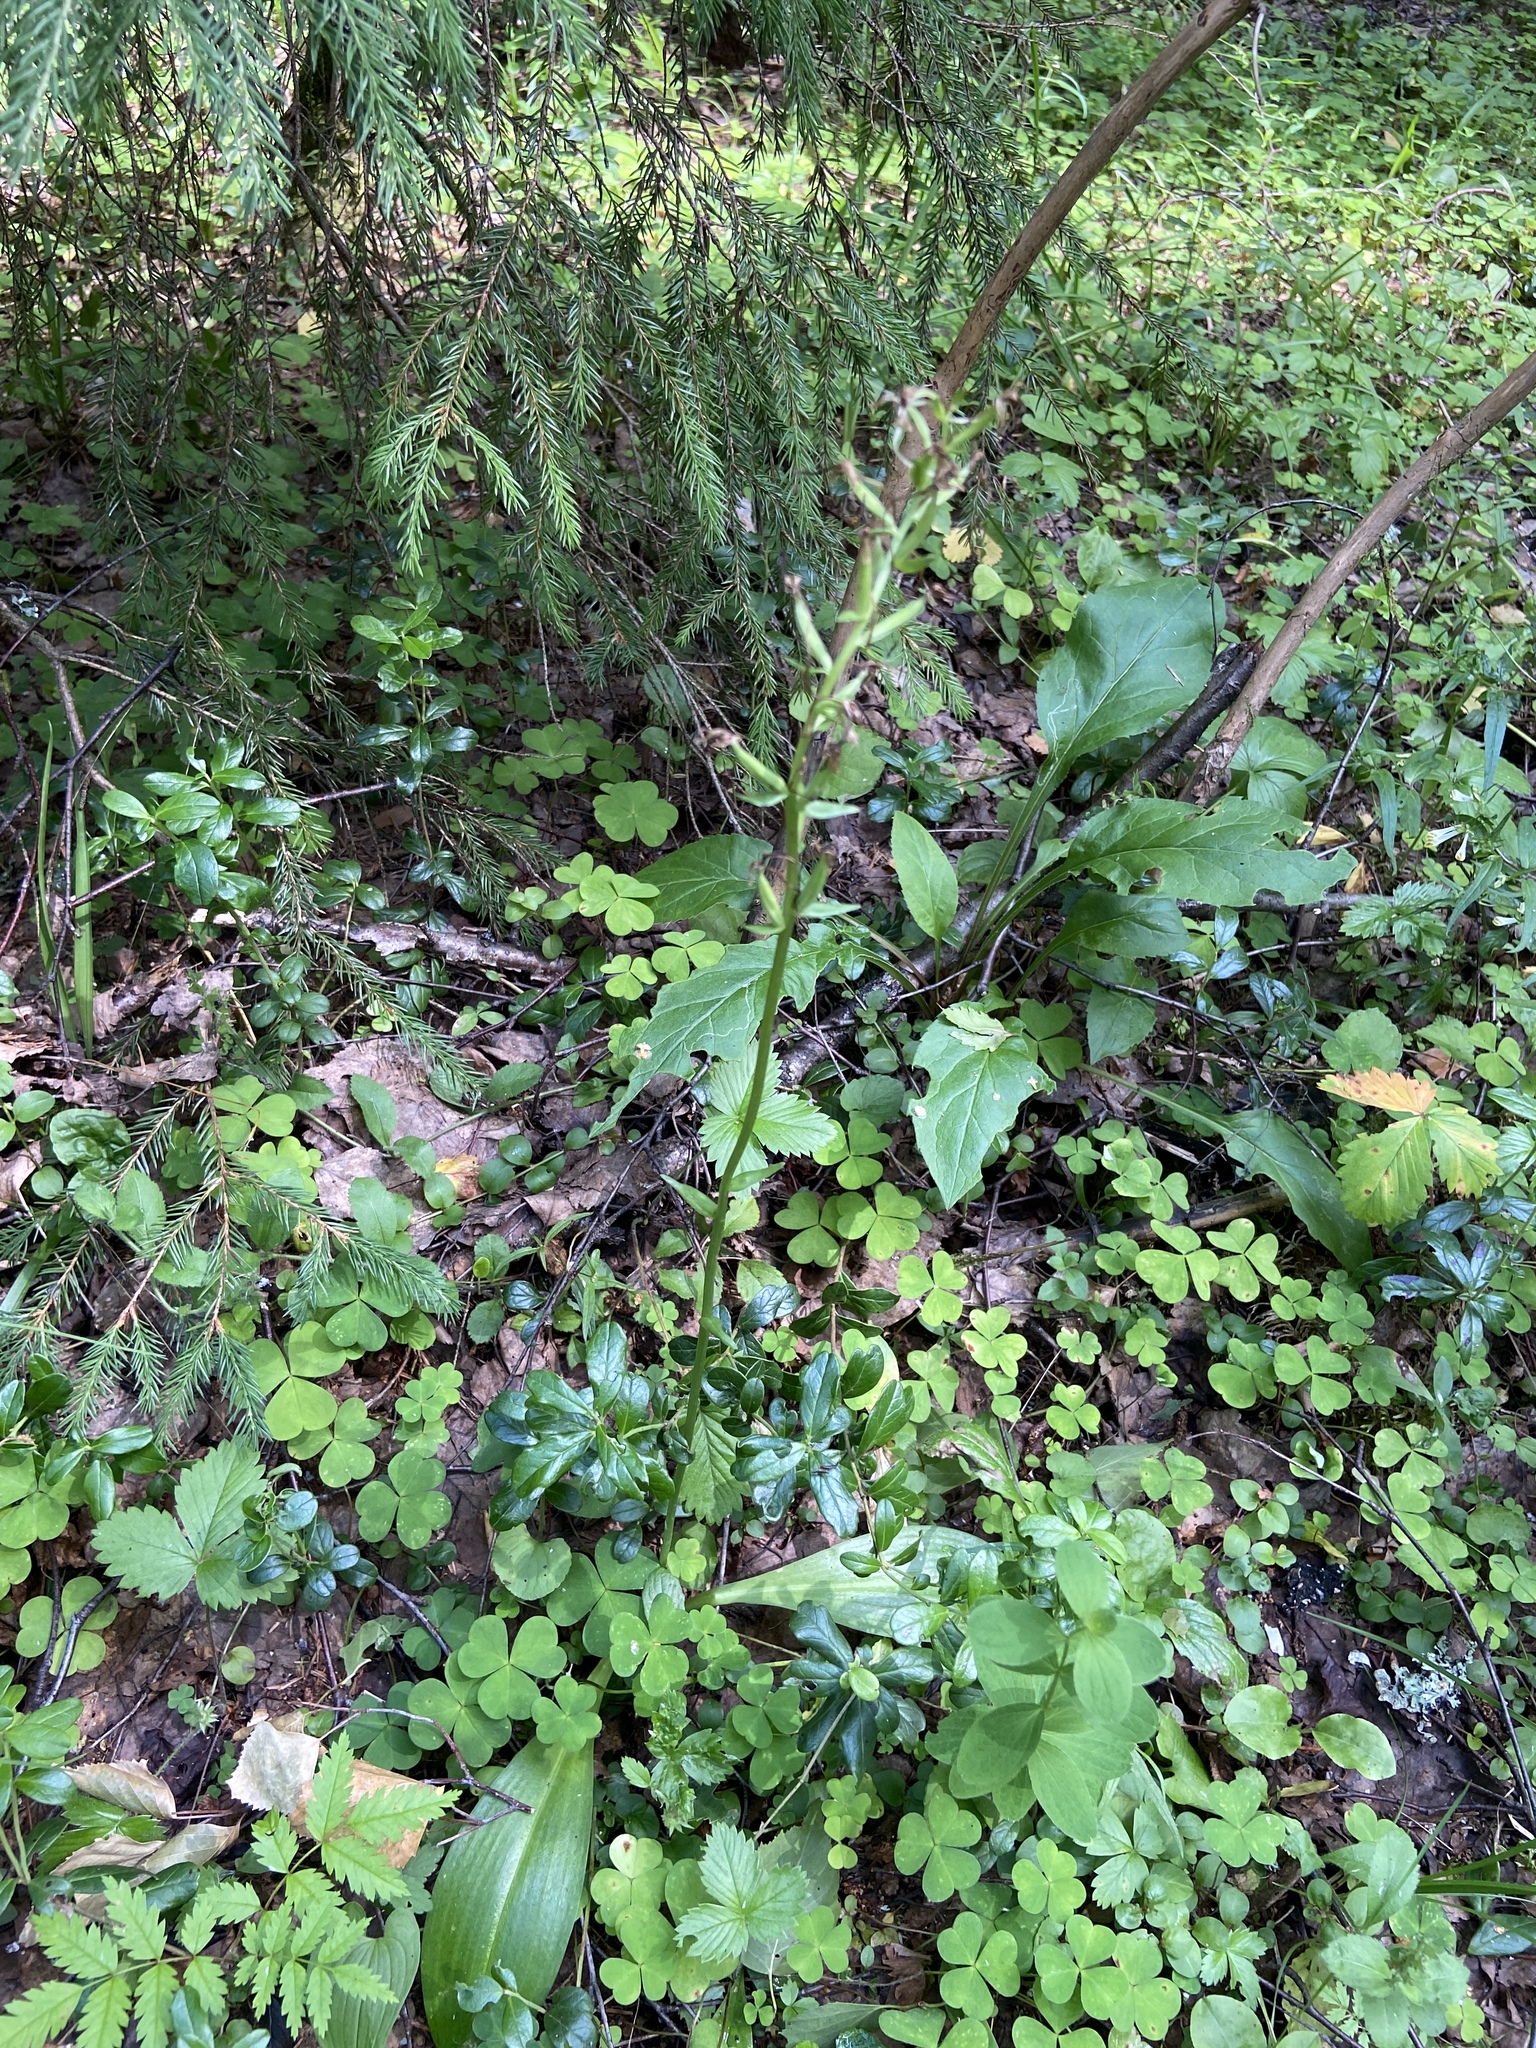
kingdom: Plantae
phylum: Tracheophyta
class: Liliopsida
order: Asparagales
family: Orchidaceae
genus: Platanthera
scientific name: Platanthera bifolia
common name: Lesser butterfly-orchid
